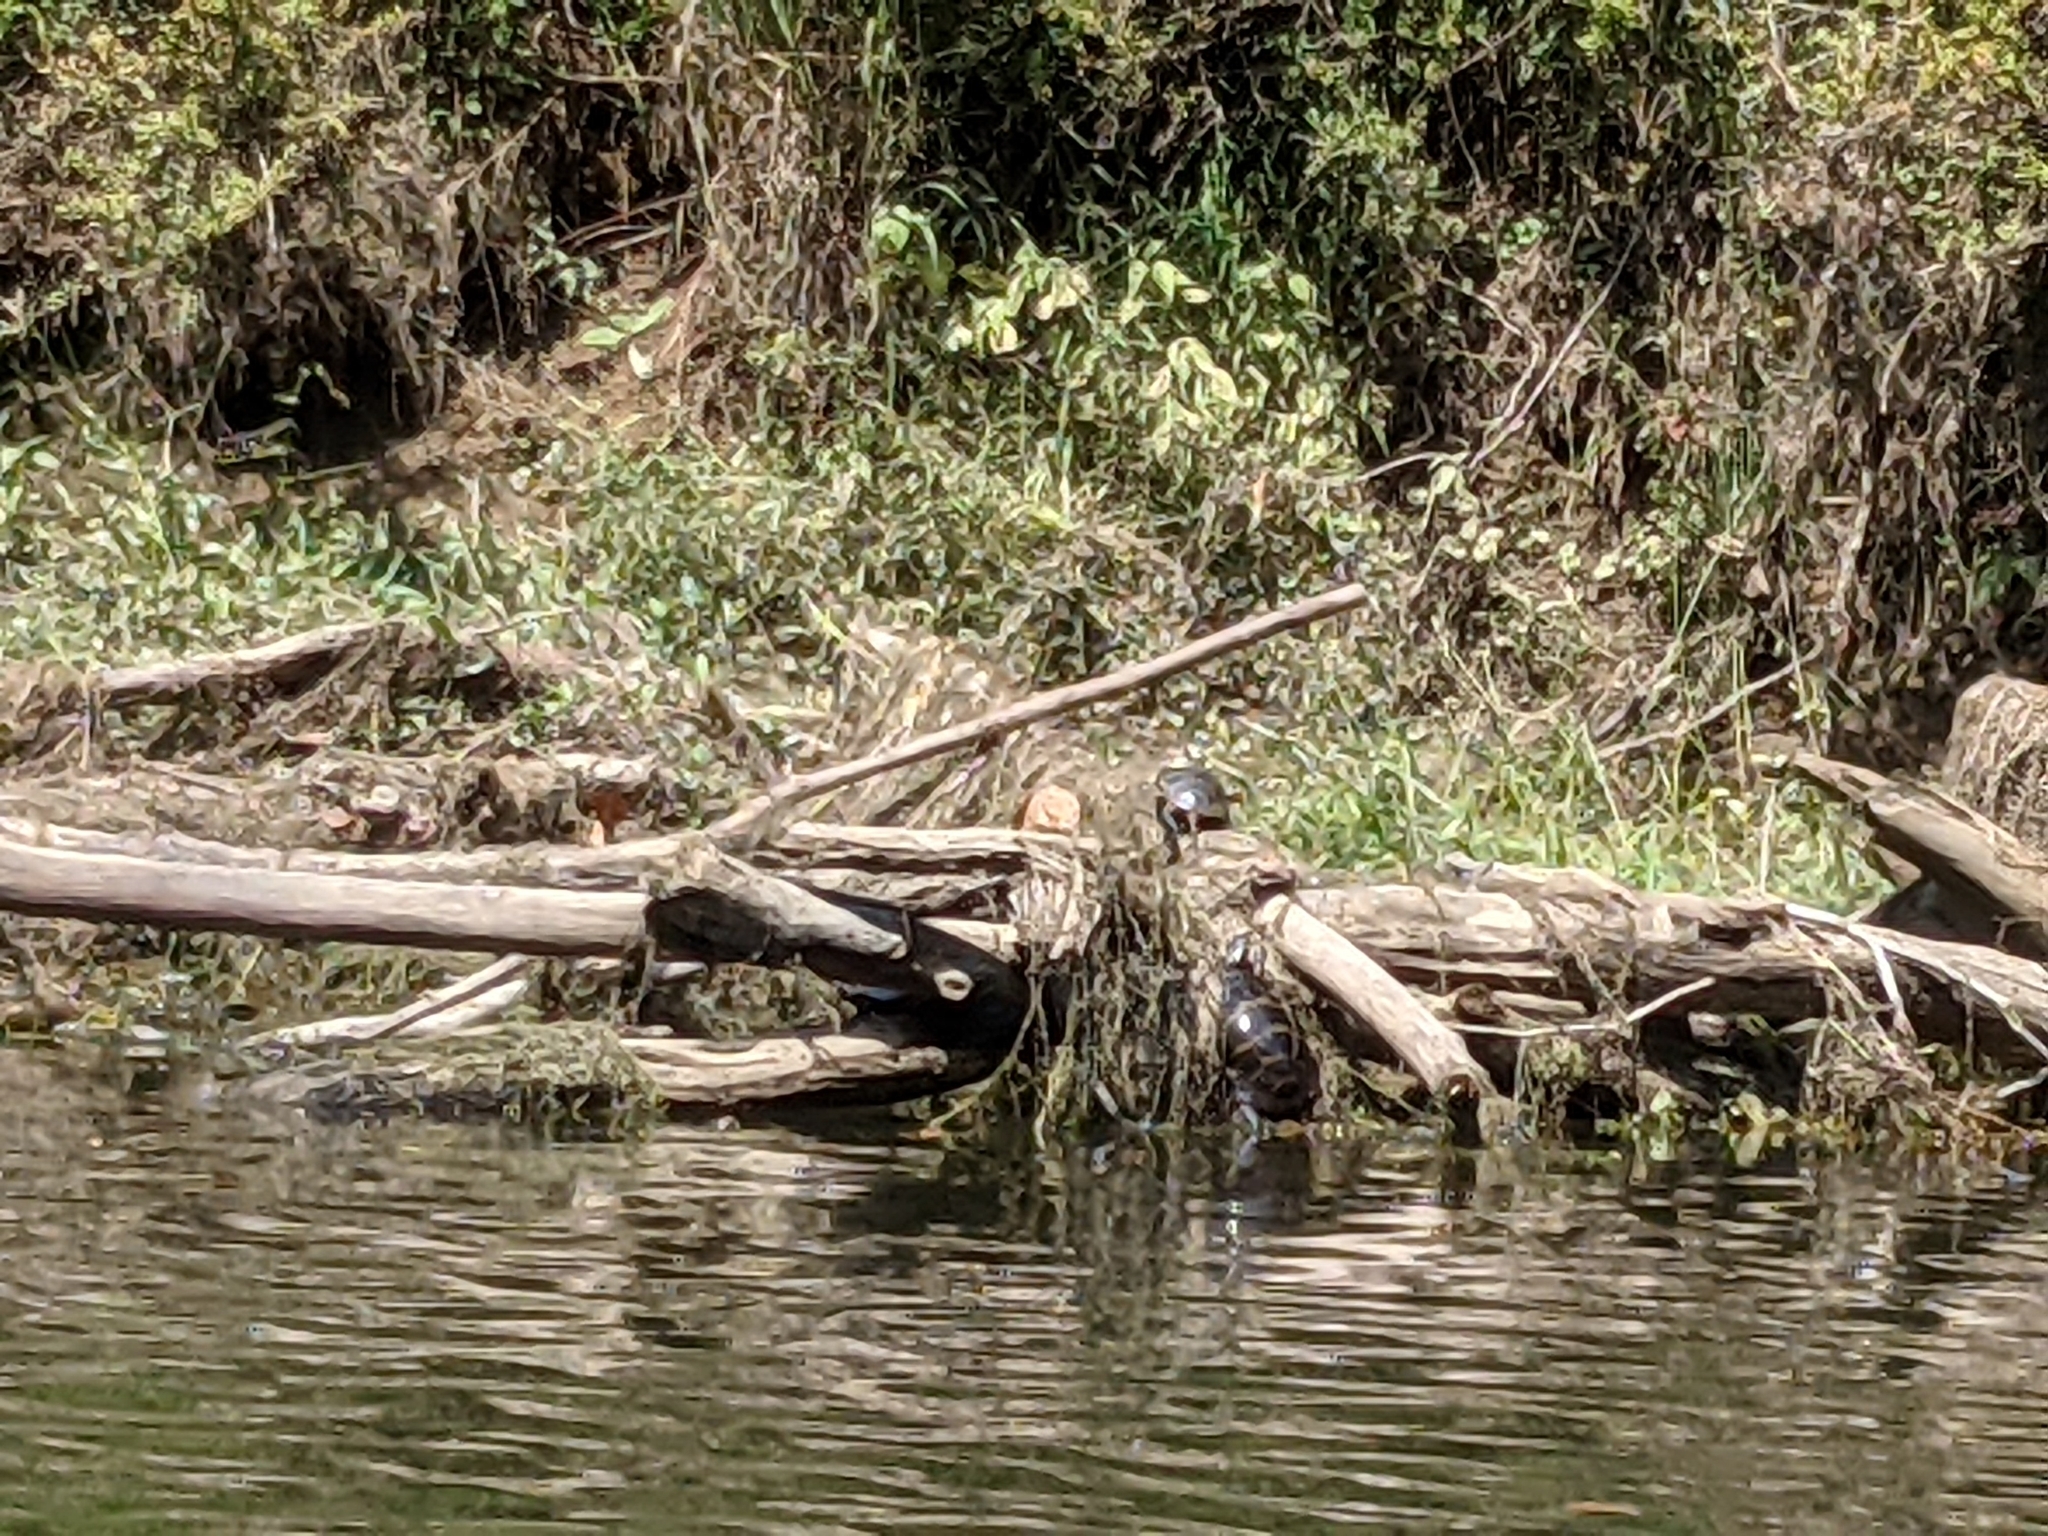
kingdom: Animalia
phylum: Chordata
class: Testudines
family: Emydidae
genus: Chrysemys
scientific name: Chrysemys picta
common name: Painted turtle
